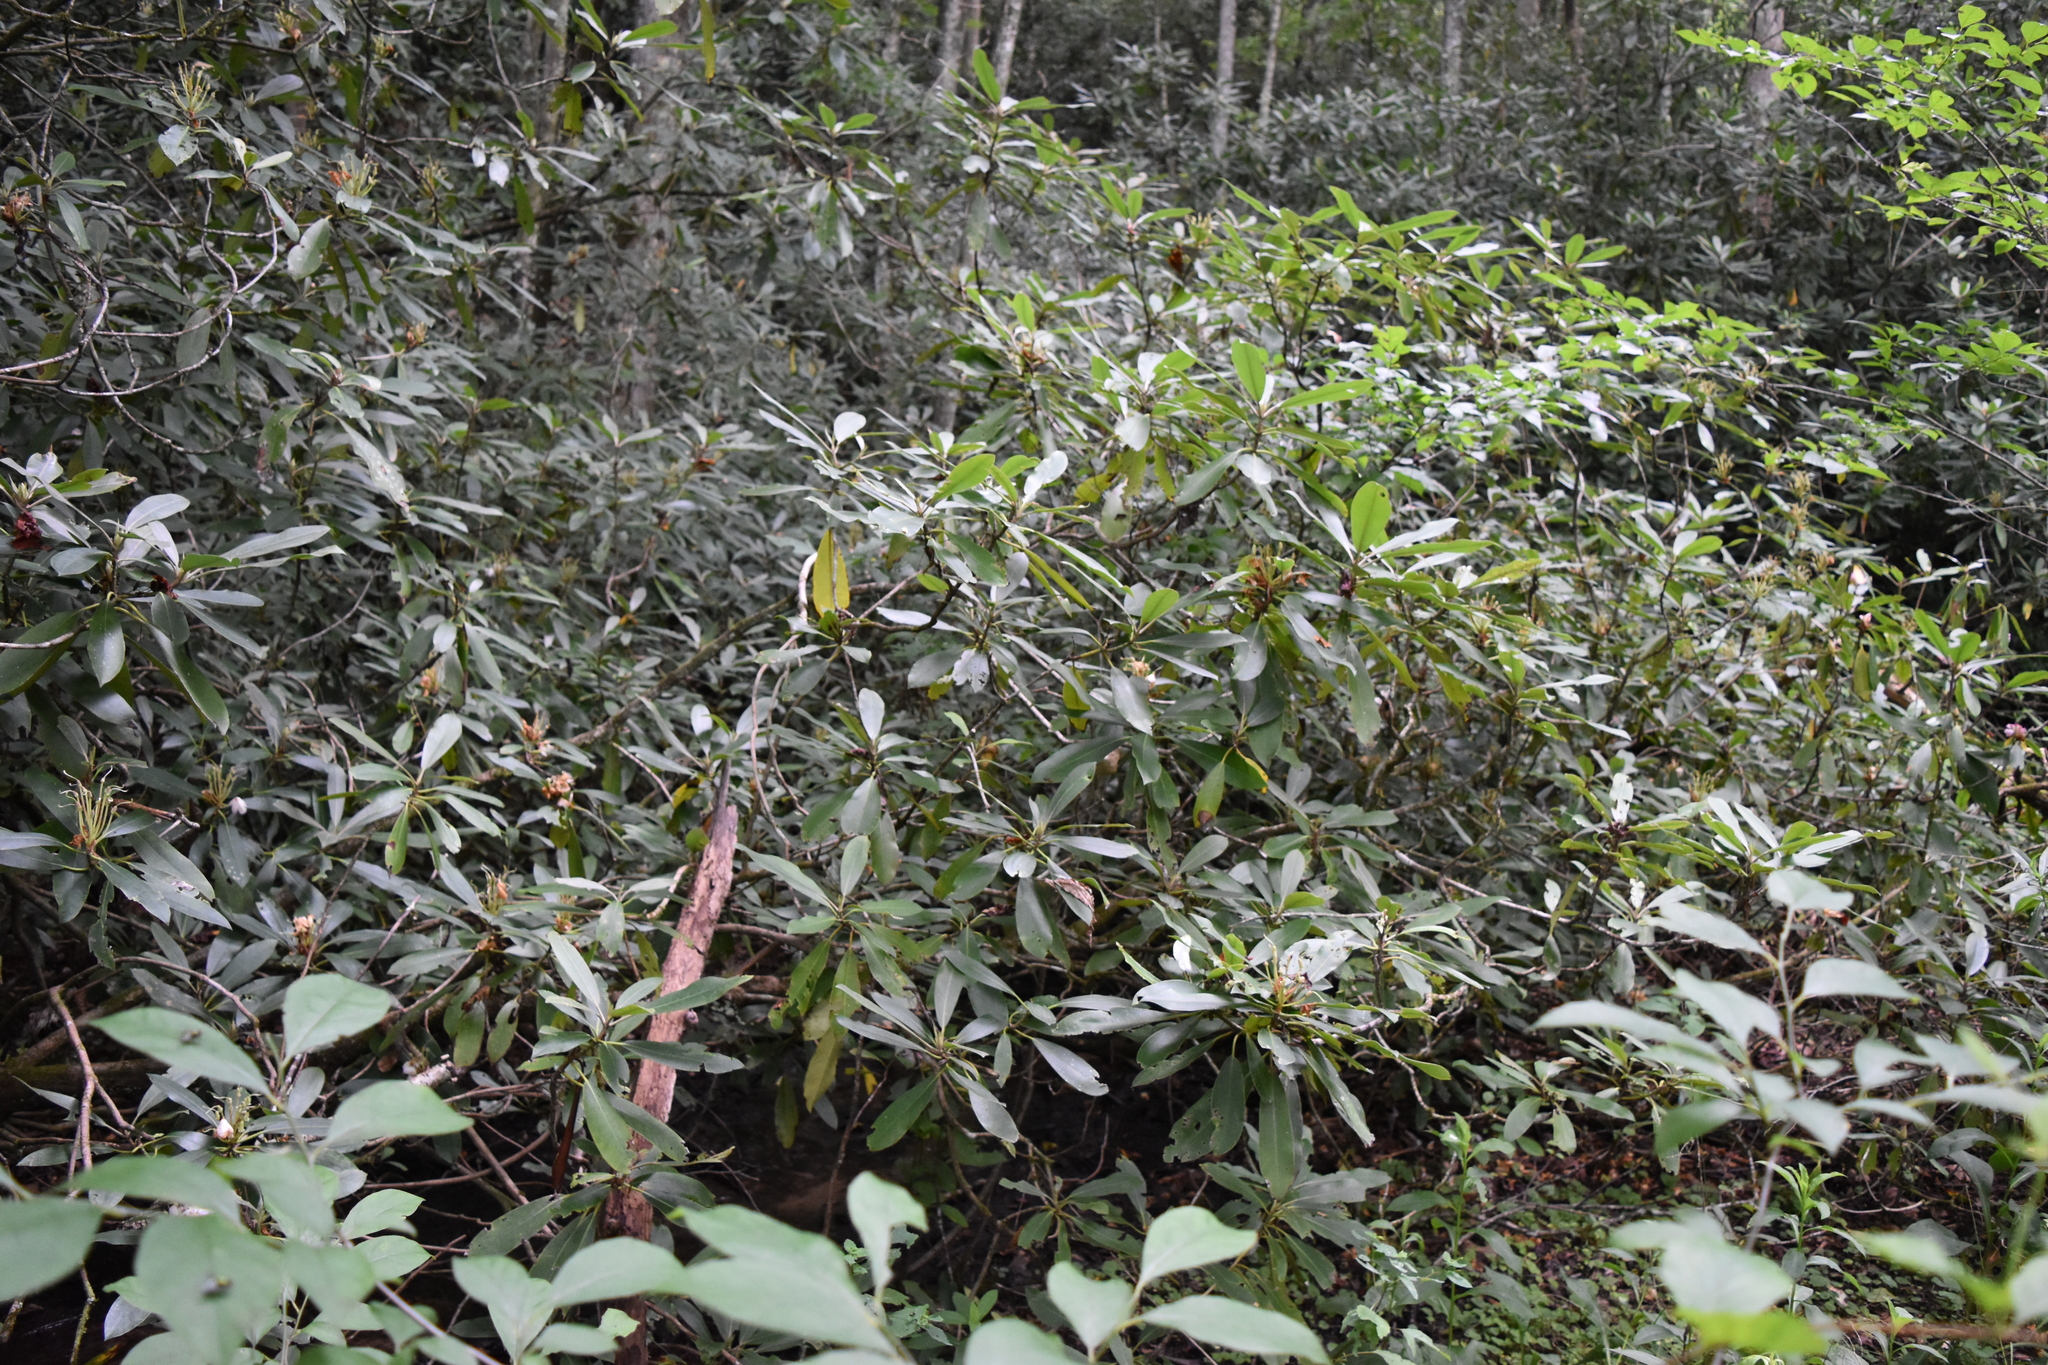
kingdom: Plantae
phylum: Tracheophyta
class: Magnoliopsida
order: Ericales
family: Ericaceae
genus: Rhododendron
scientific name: Rhododendron maximum
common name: Great rhododendron
